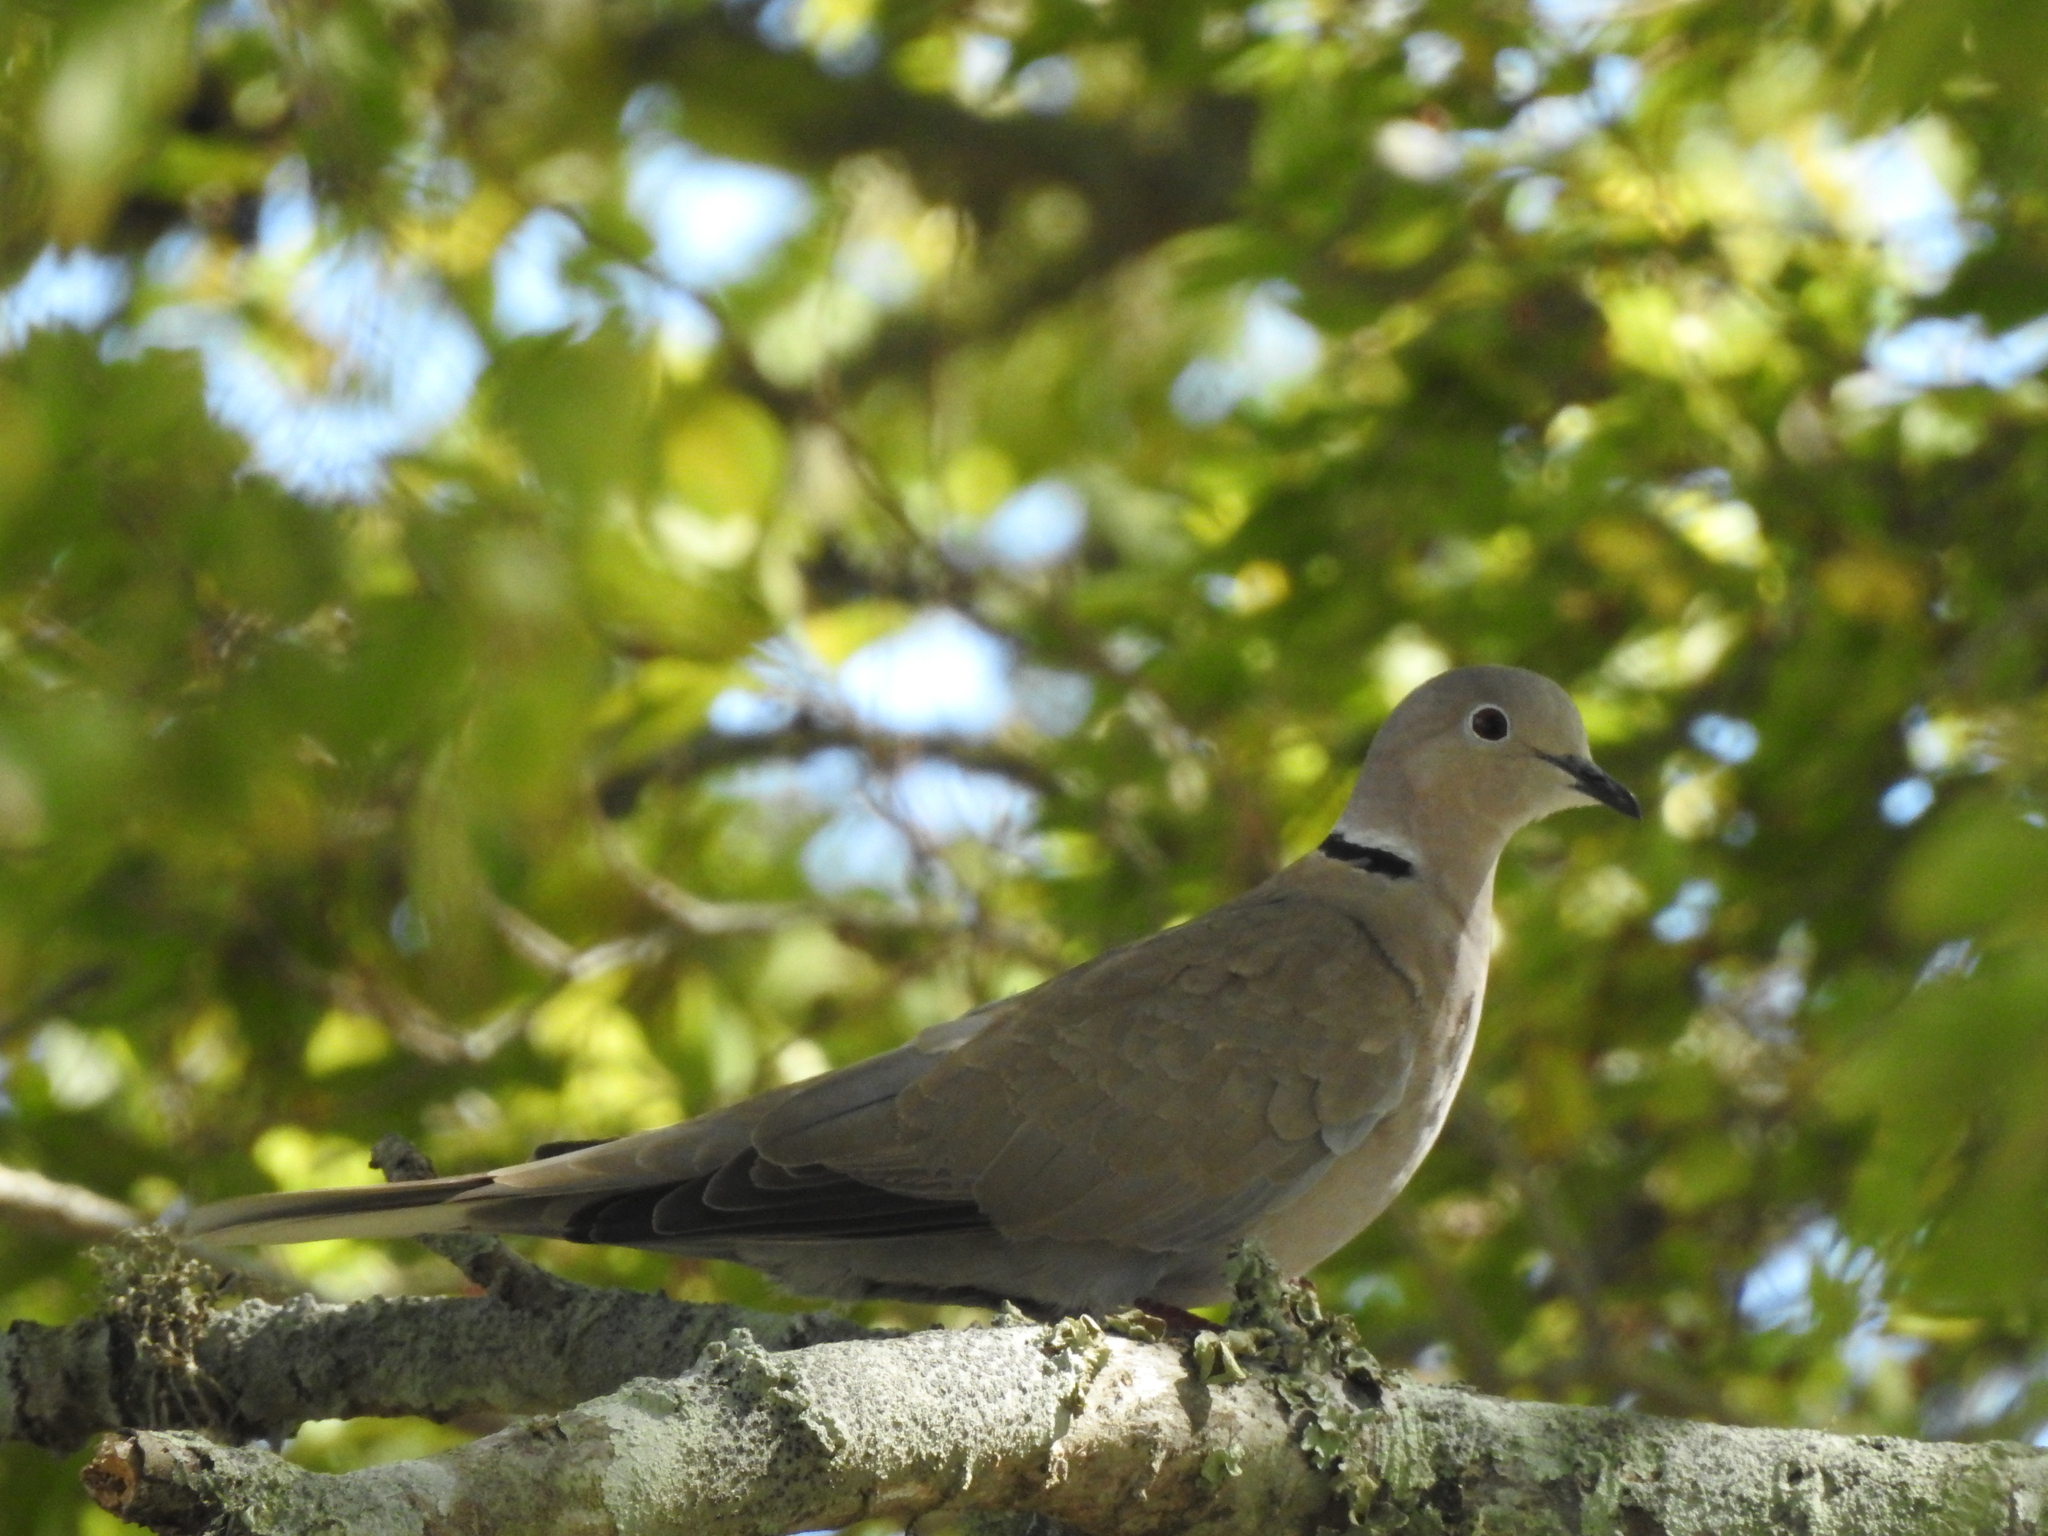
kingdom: Animalia
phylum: Chordata
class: Aves
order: Columbiformes
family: Columbidae
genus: Streptopelia
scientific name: Streptopelia decaocto
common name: Eurasian collared dove
